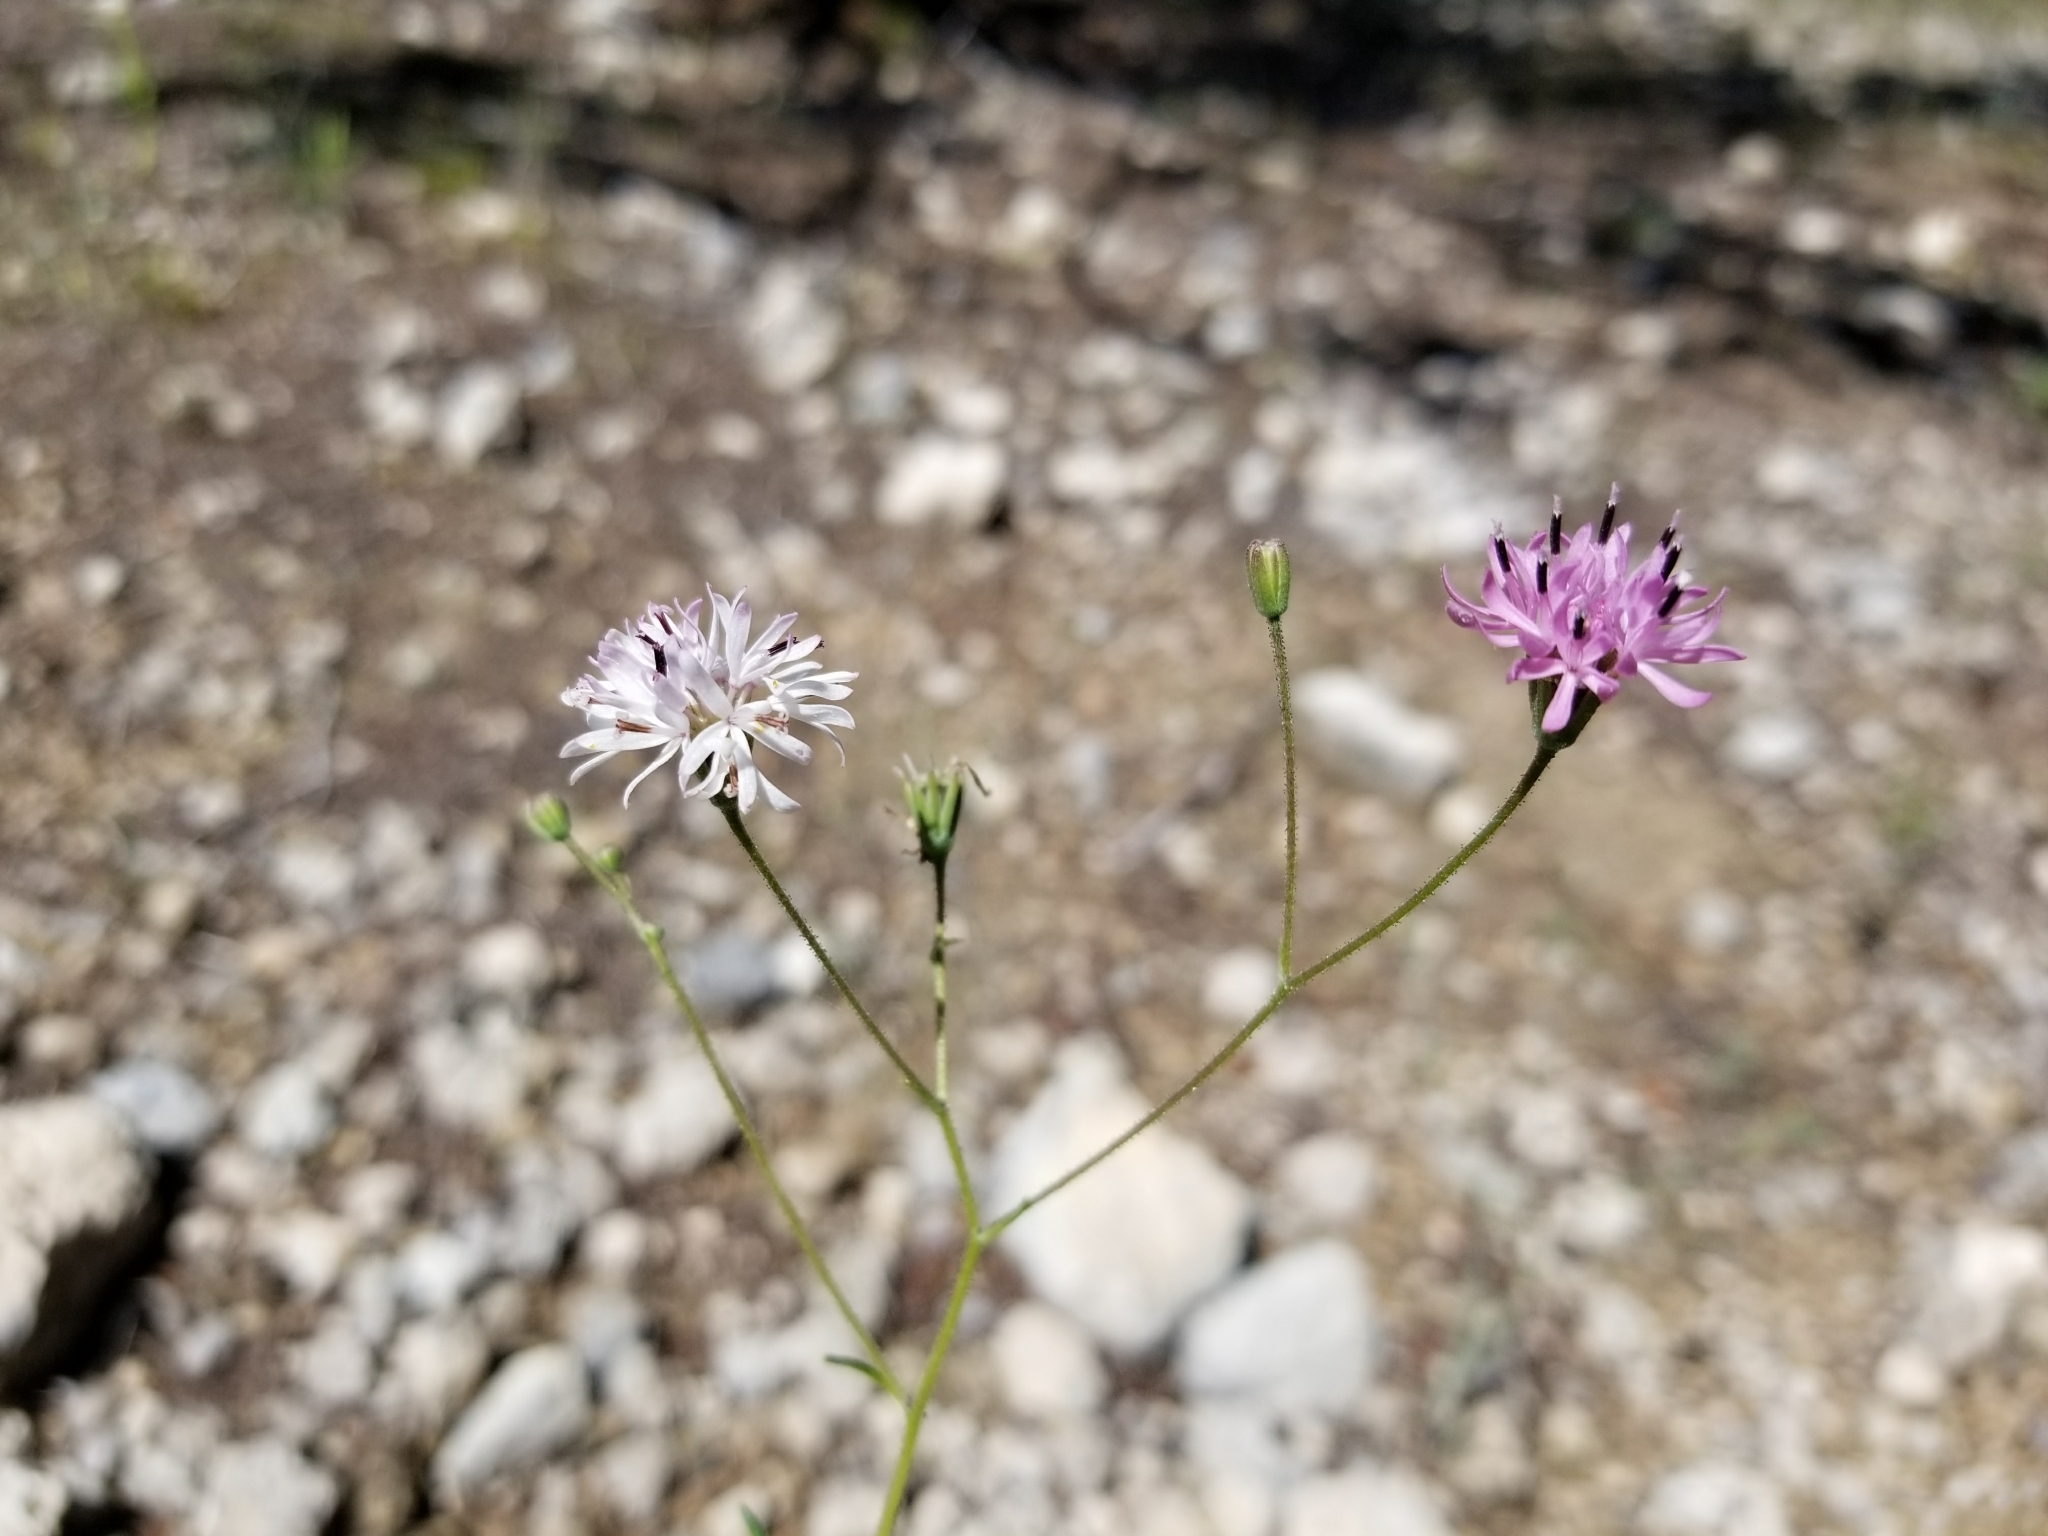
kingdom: Plantae
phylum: Tracheophyta
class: Magnoliopsida
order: Asterales
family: Asteraceae
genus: Palafoxia
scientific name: Palafoxia callosa
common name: Small palafox
